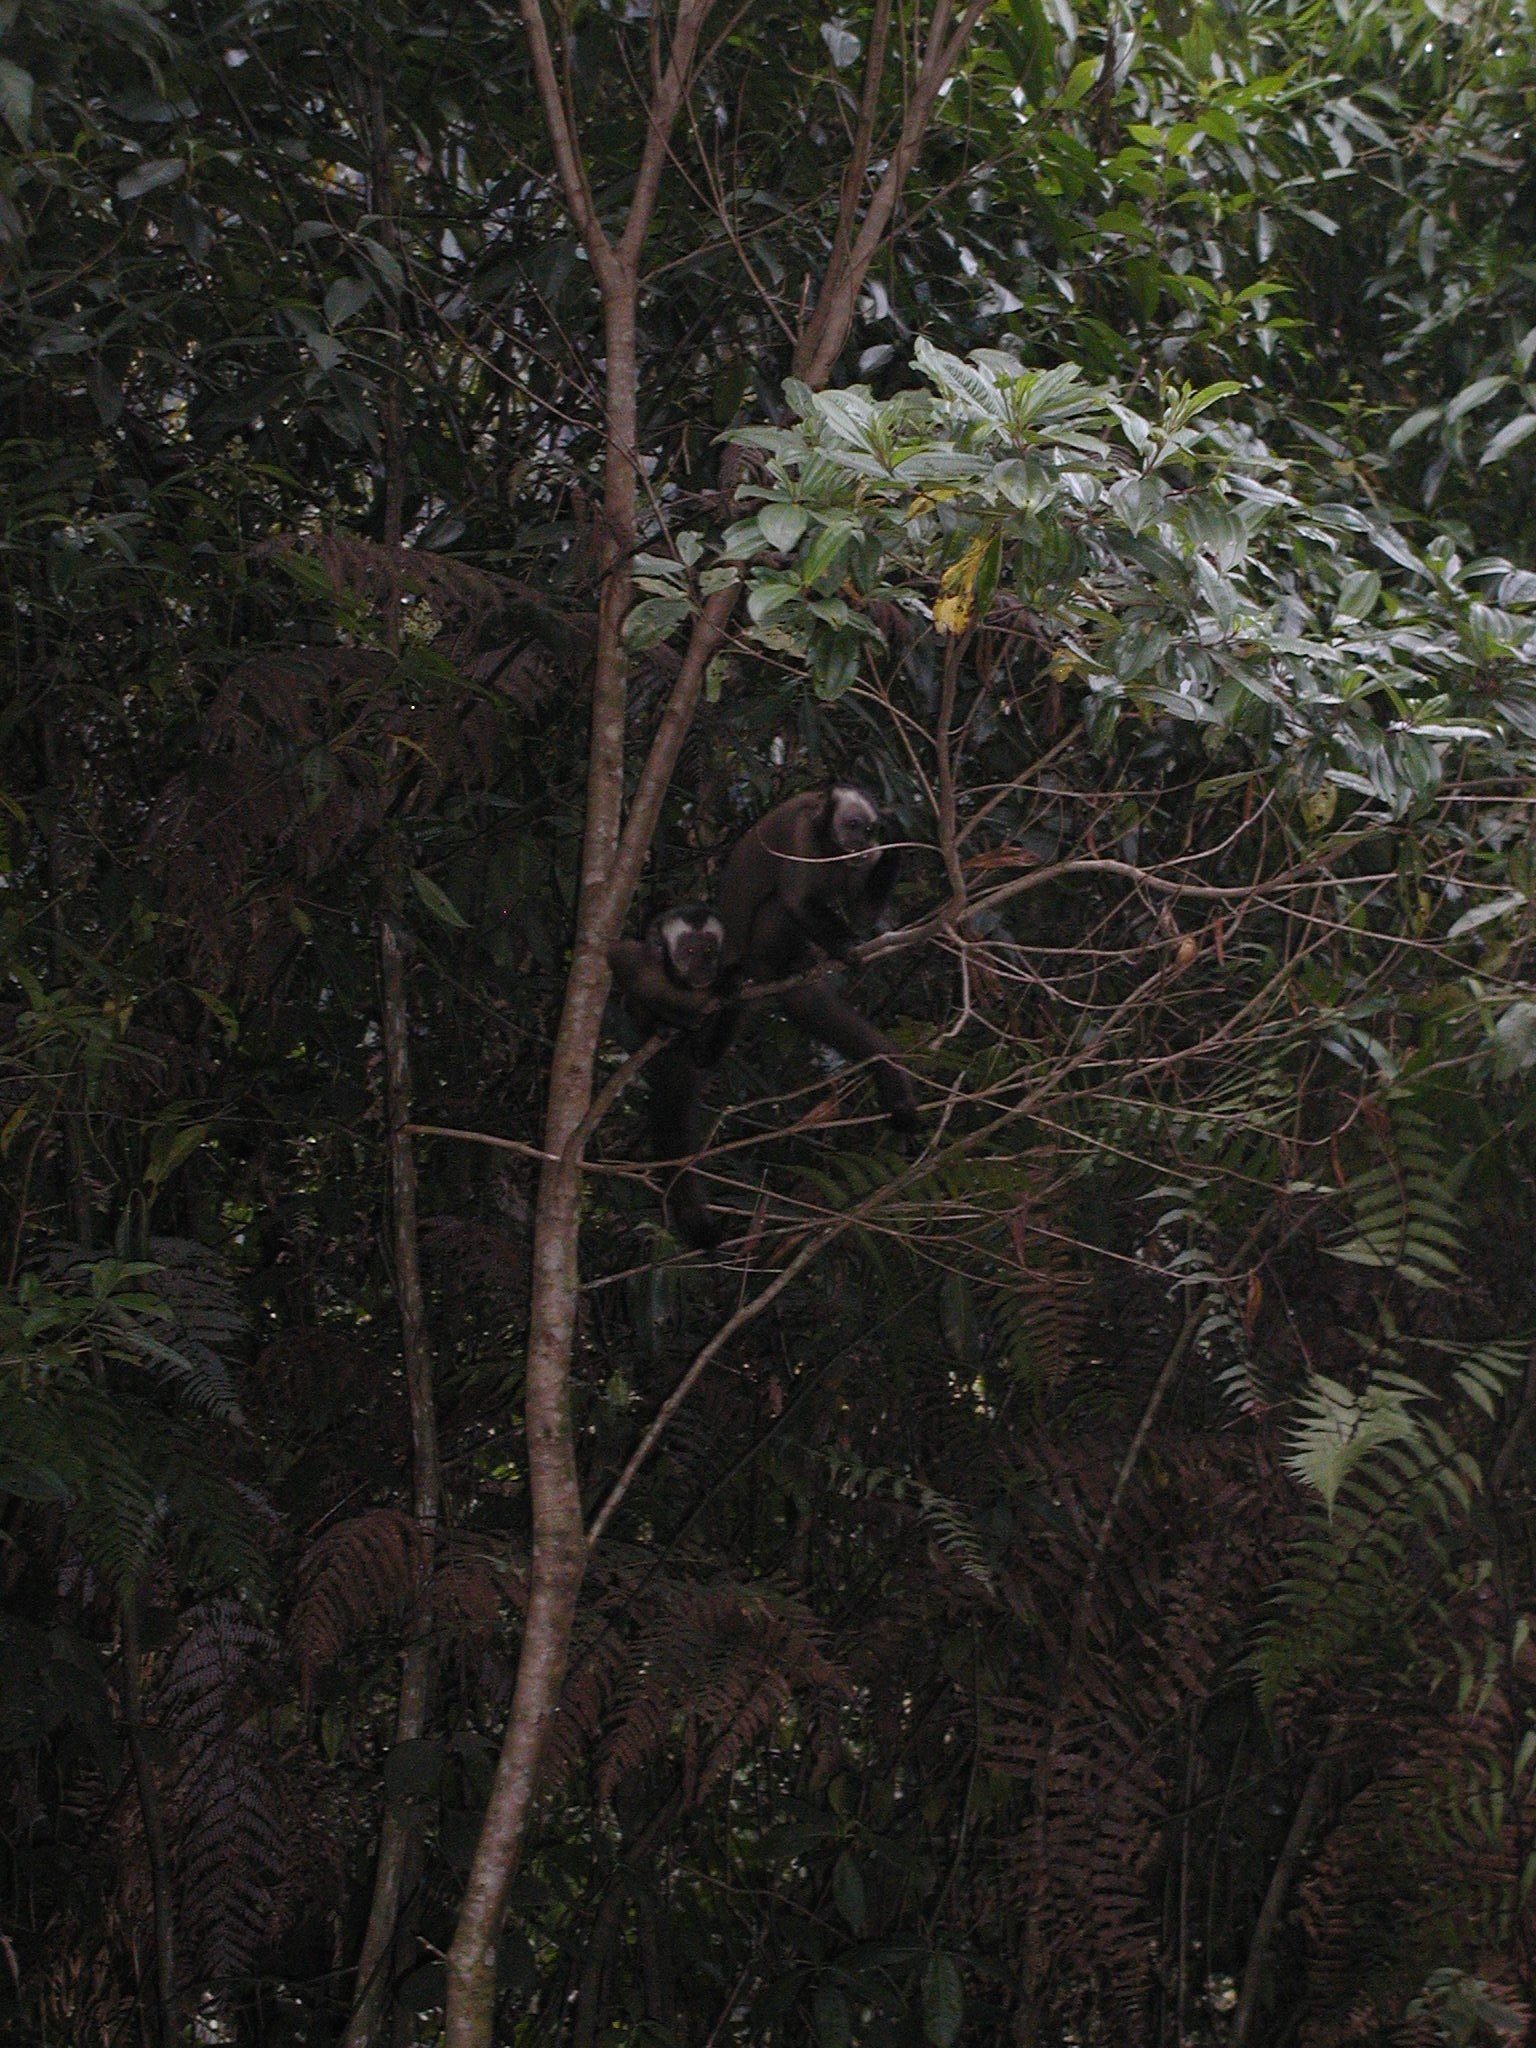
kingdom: Animalia
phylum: Chordata
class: Mammalia
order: Primates
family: Cebidae
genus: Sapajus
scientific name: Sapajus apella
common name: Tufted capuchin
